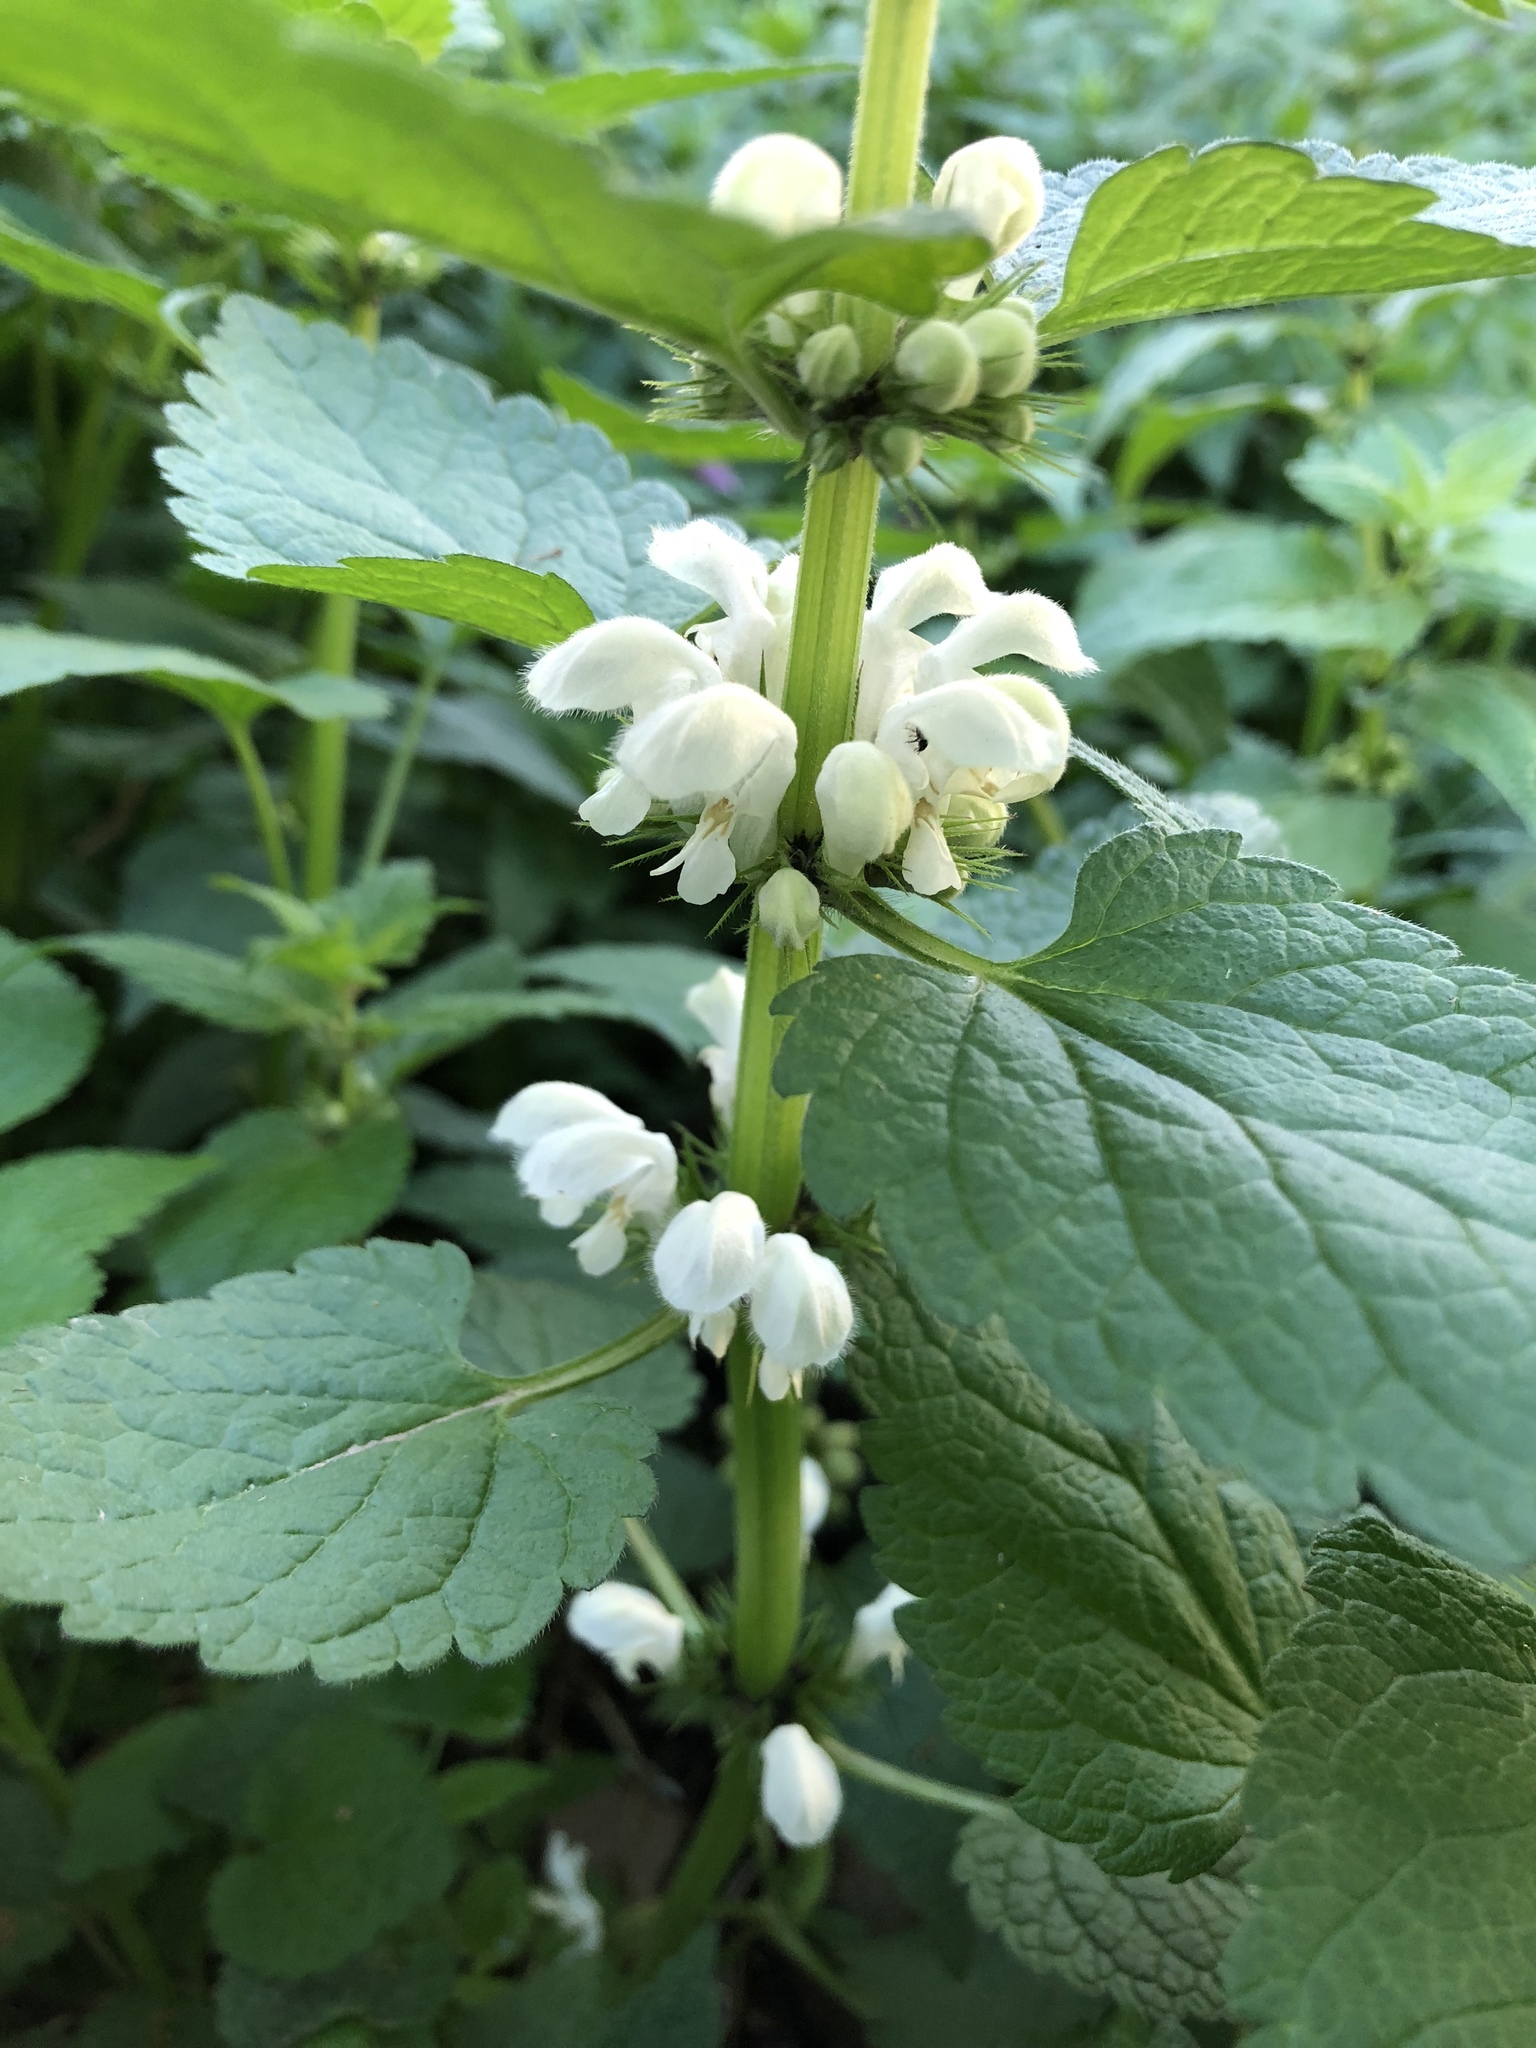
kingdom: Plantae
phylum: Tracheophyta
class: Magnoliopsida
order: Lamiales
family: Lamiaceae
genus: Lamium
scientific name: Lamium album
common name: White dead-nettle
